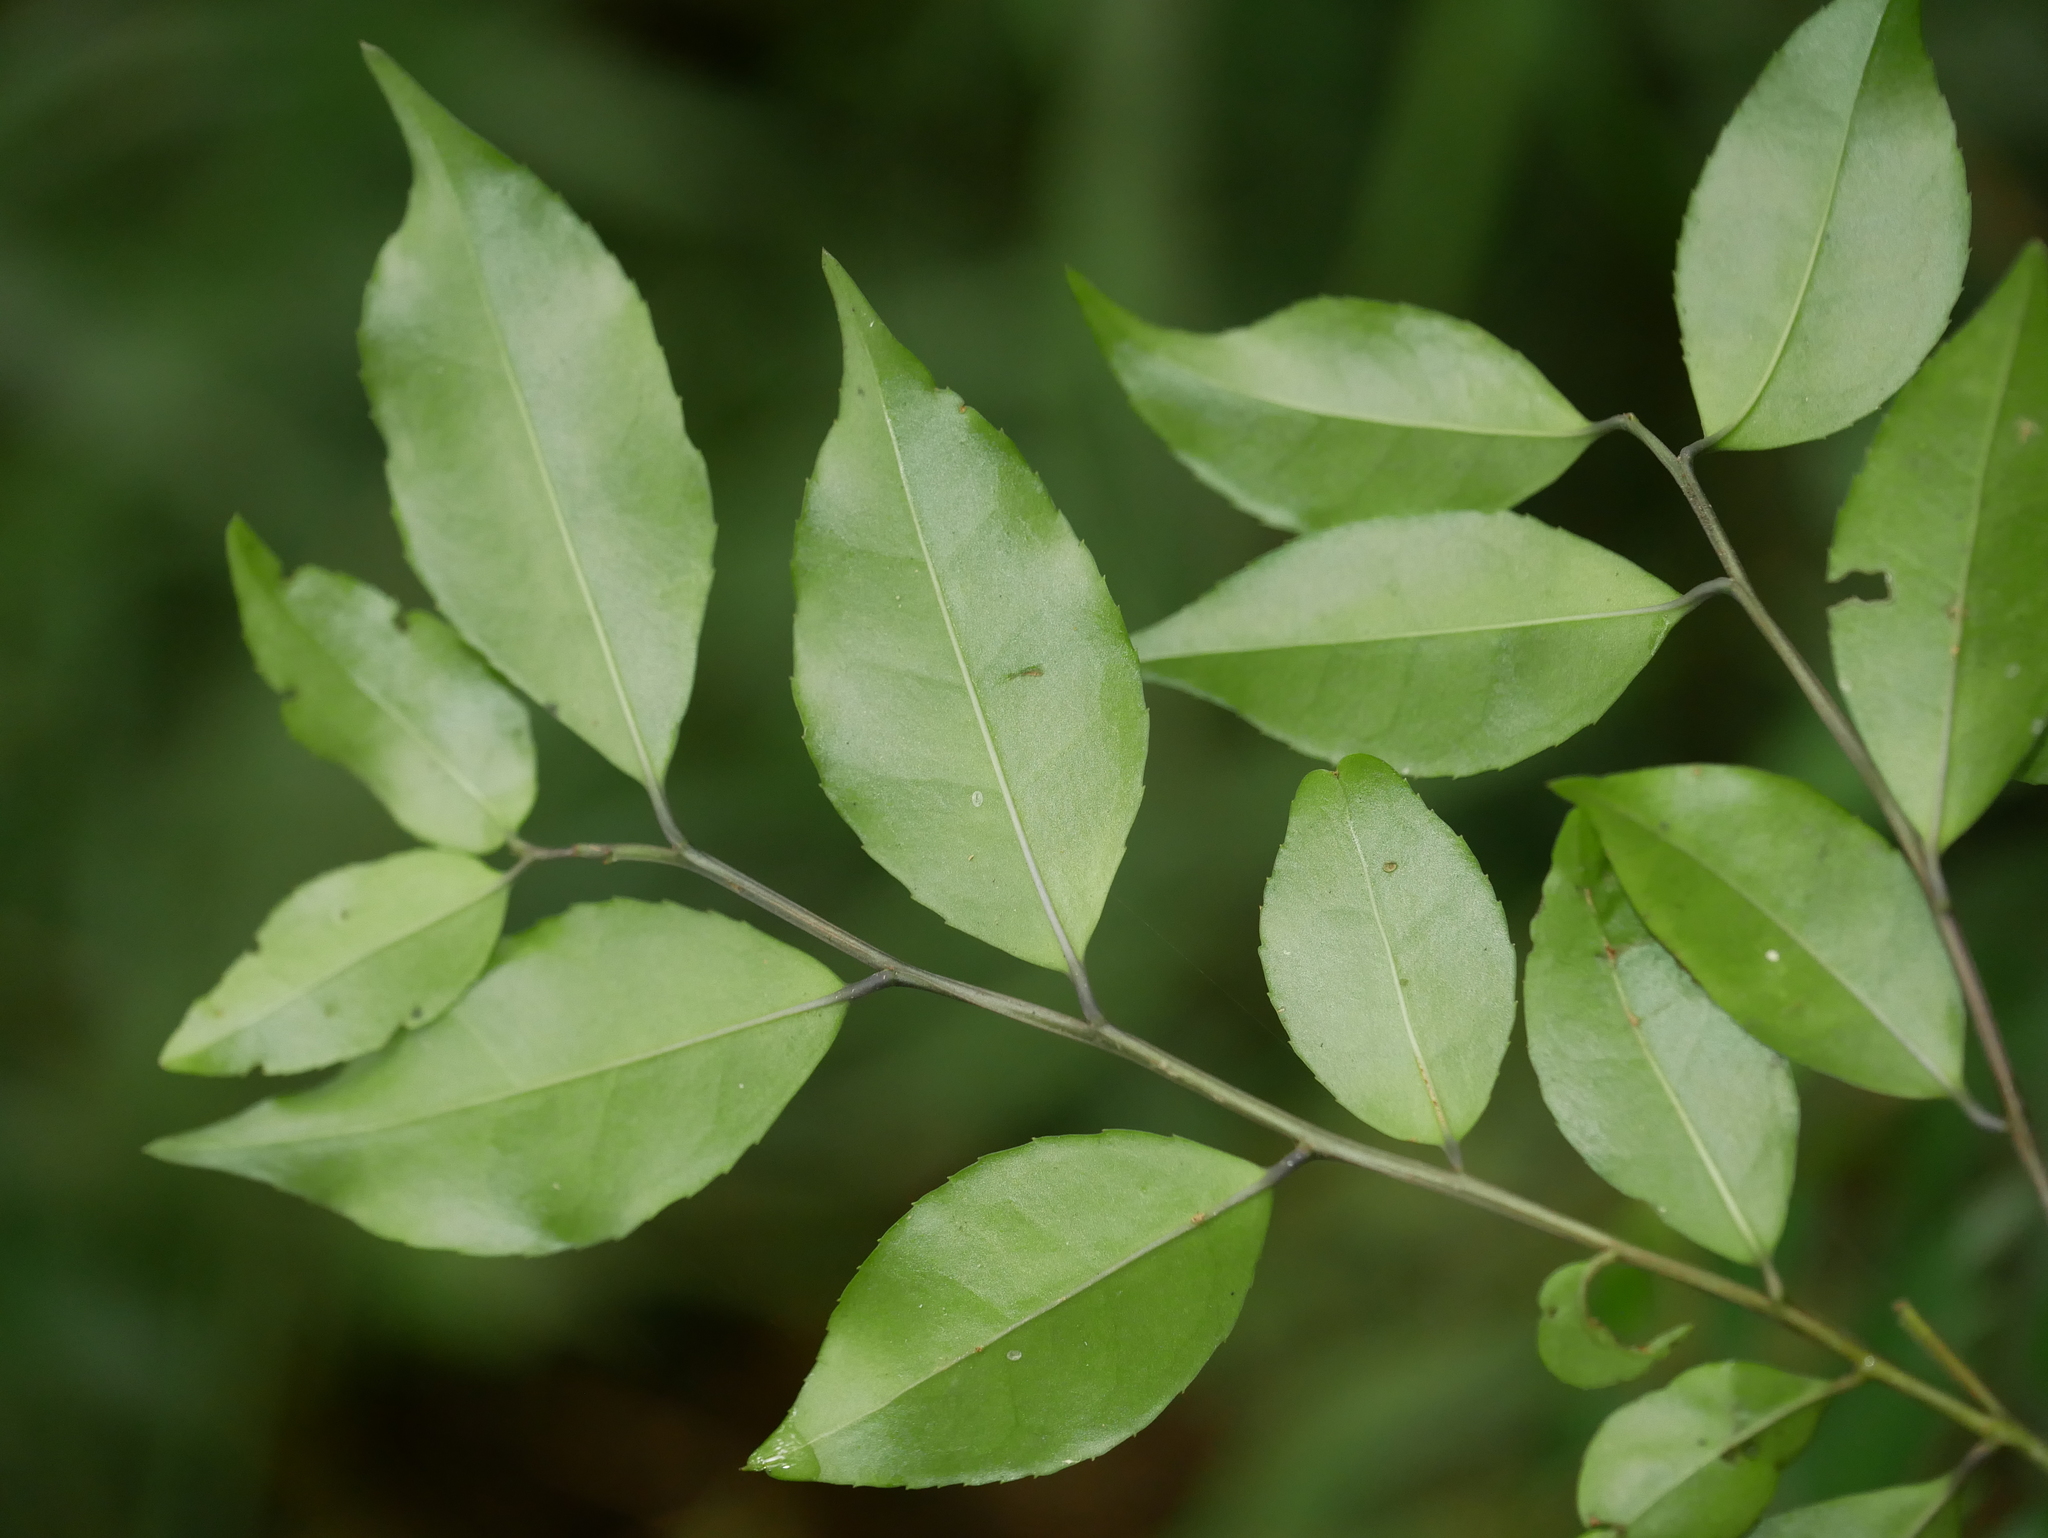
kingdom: Plantae
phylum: Tracheophyta
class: Magnoliopsida
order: Aquifoliales
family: Aquifoliaceae
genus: Ilex
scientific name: Ilex rotunda
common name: Kurogane holly
